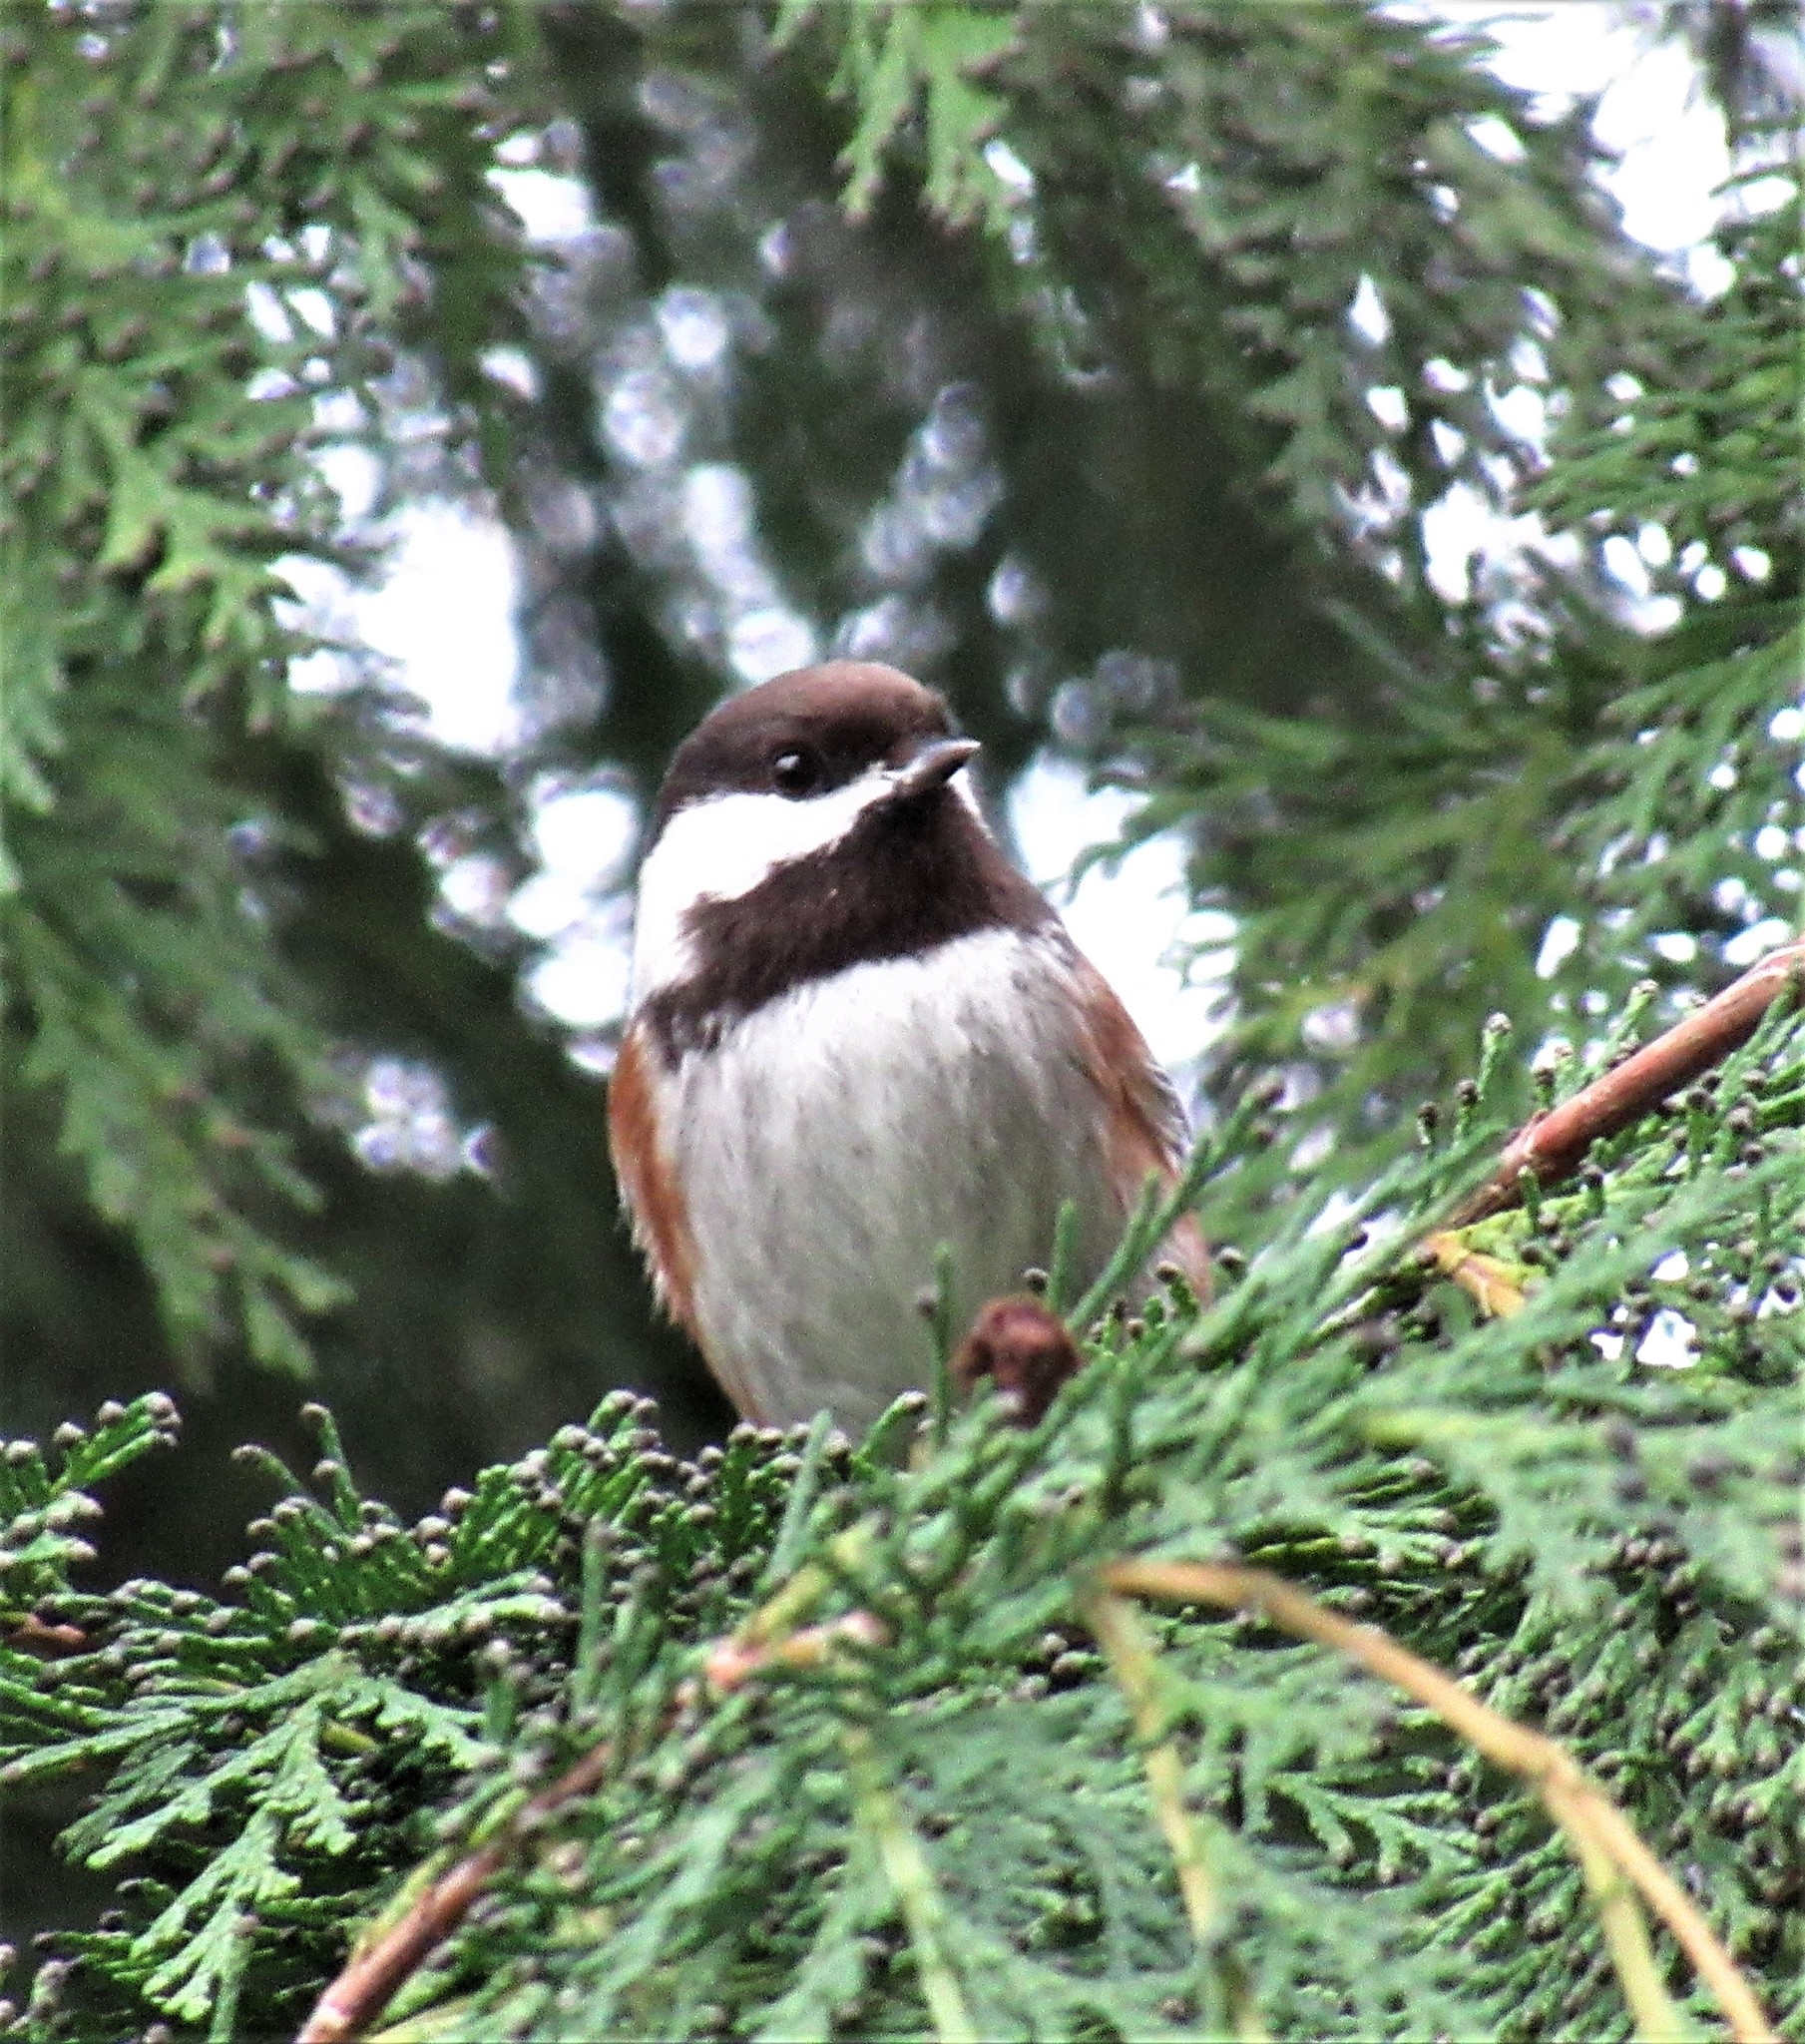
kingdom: Animalia
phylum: Chordata
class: Aves
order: Passeriformes
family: Paridae
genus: Poecile
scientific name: Poecile rufescens
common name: Chestnut-backed chickadee
